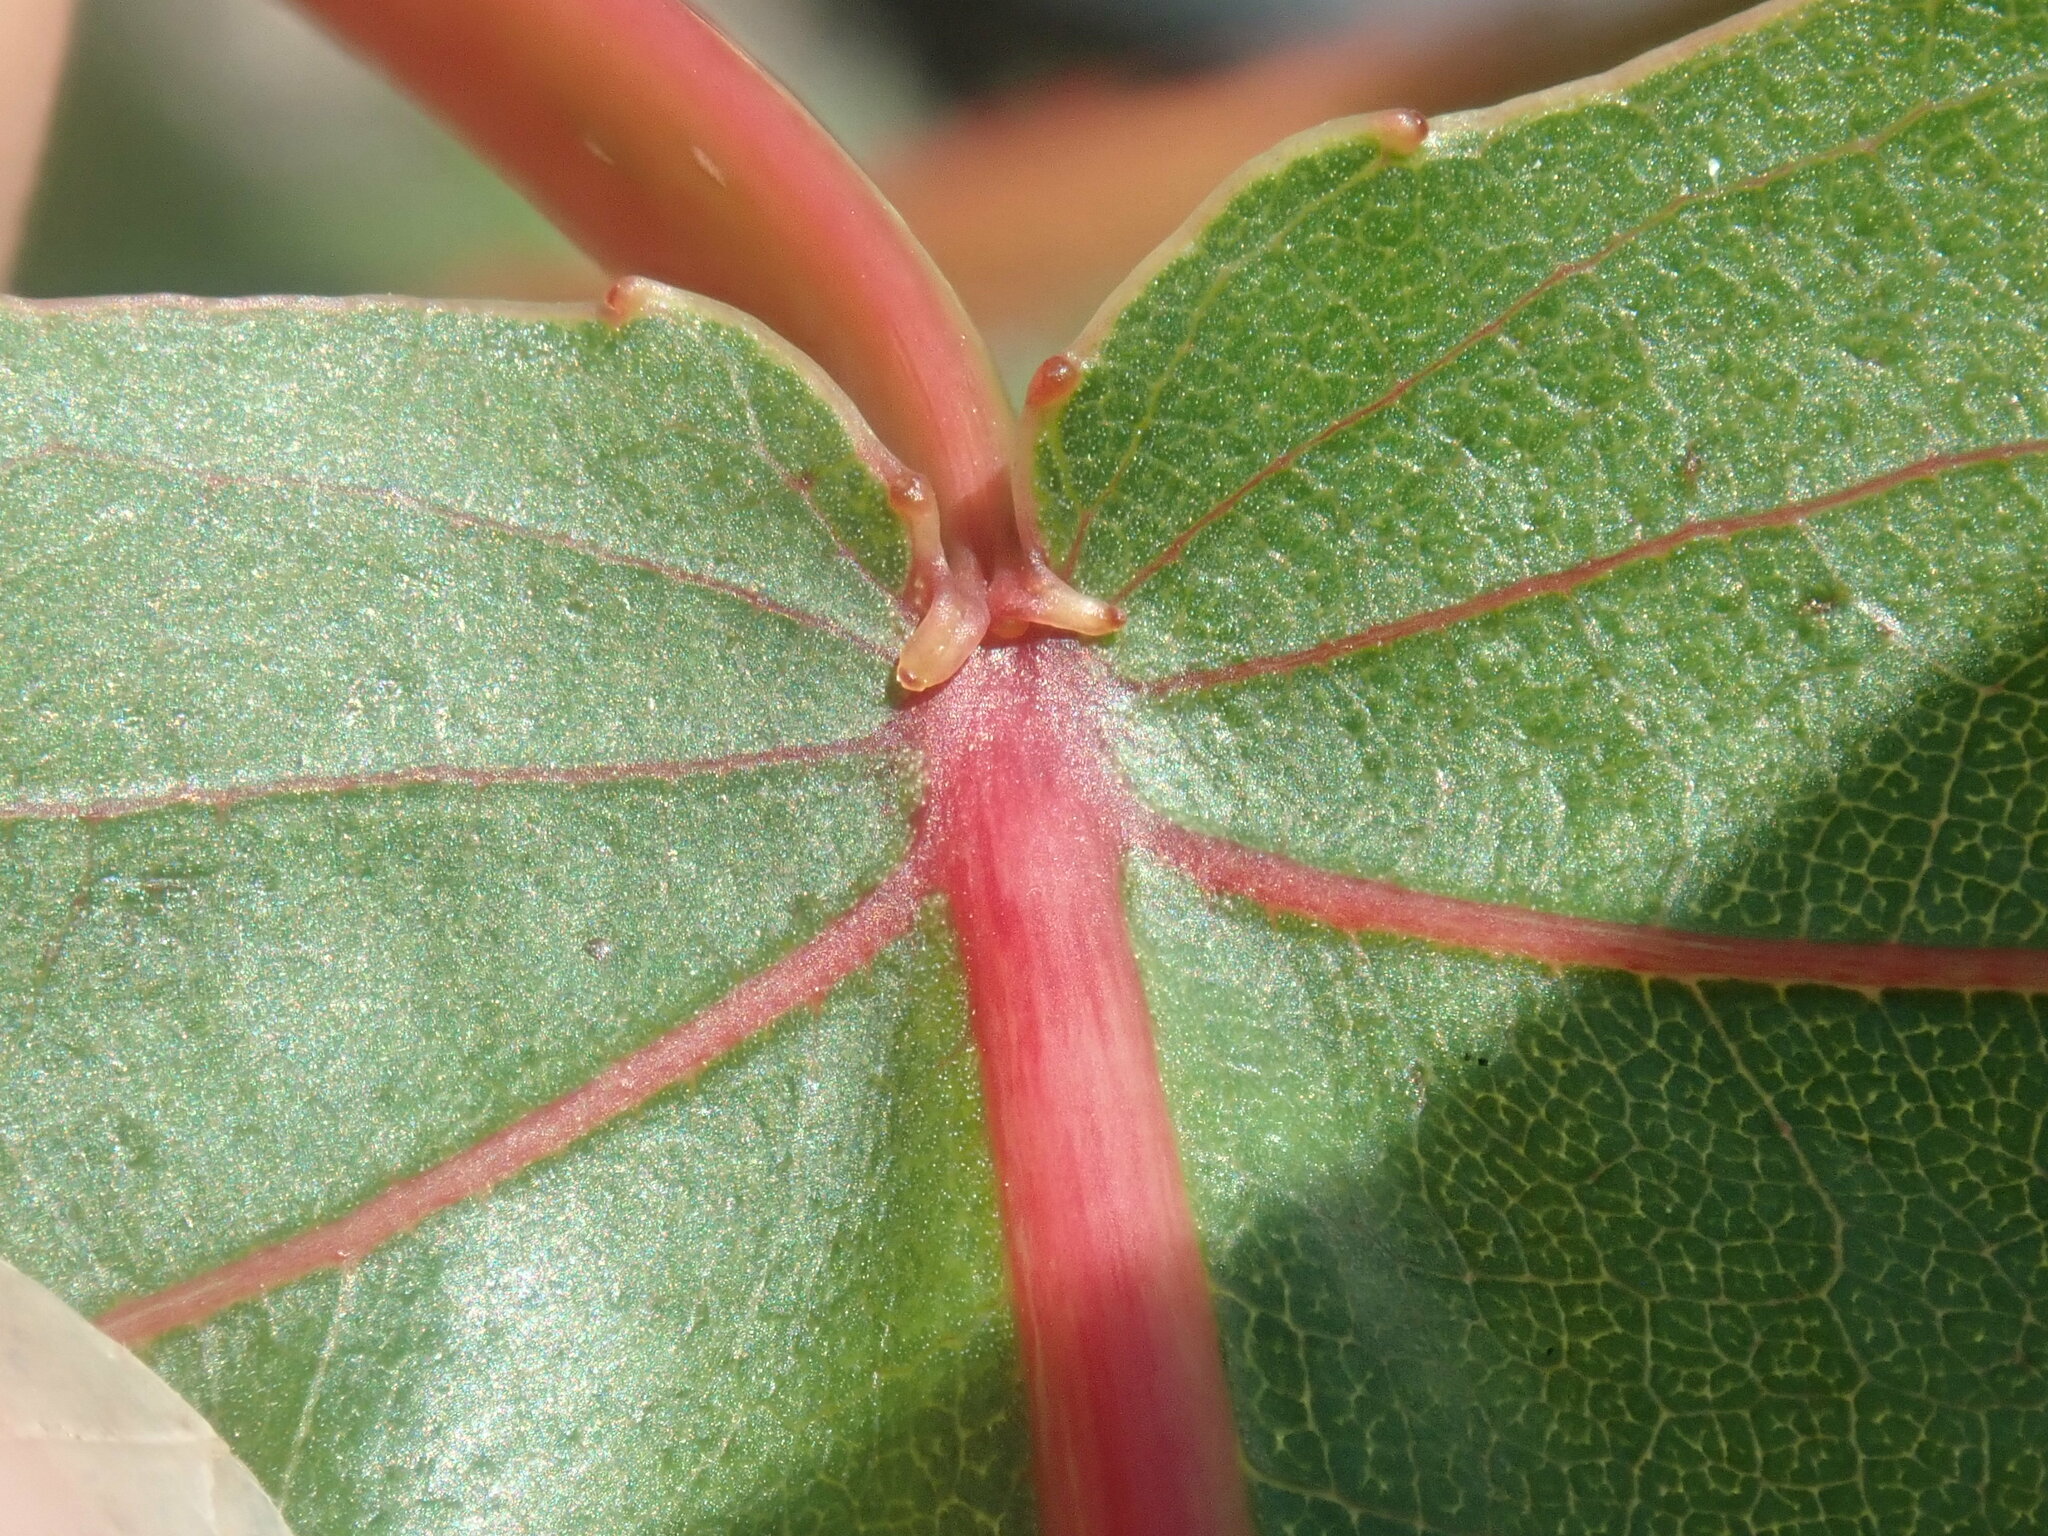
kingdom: Plantae
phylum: Tracheophyta
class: Magnoliopsida
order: Malpighiales
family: Salicaceae
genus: Populus
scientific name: Populus deltoides
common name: Eastern cottonwood
